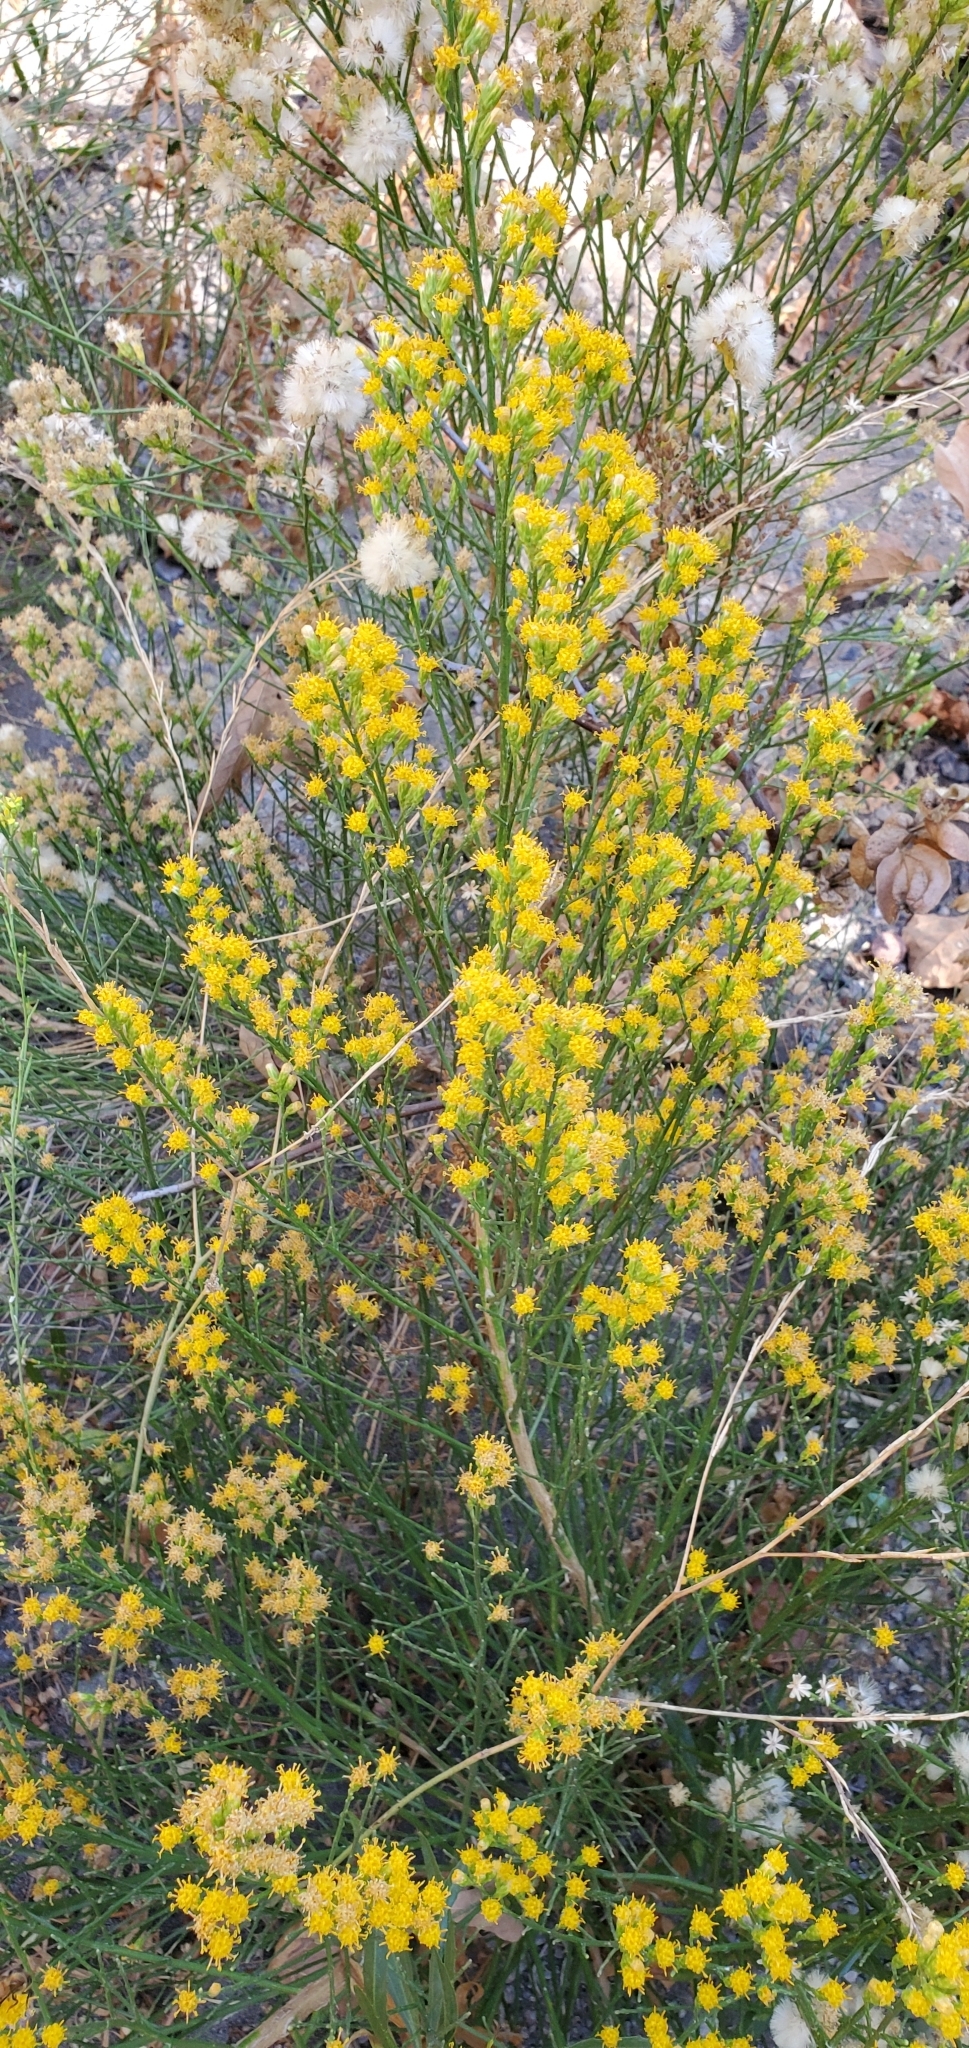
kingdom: Plantae
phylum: Tracheophyta
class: Magnoliopsida
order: Asterales
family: Asteraceae
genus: Lepidospartum
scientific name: Lepidospartum squamatum
